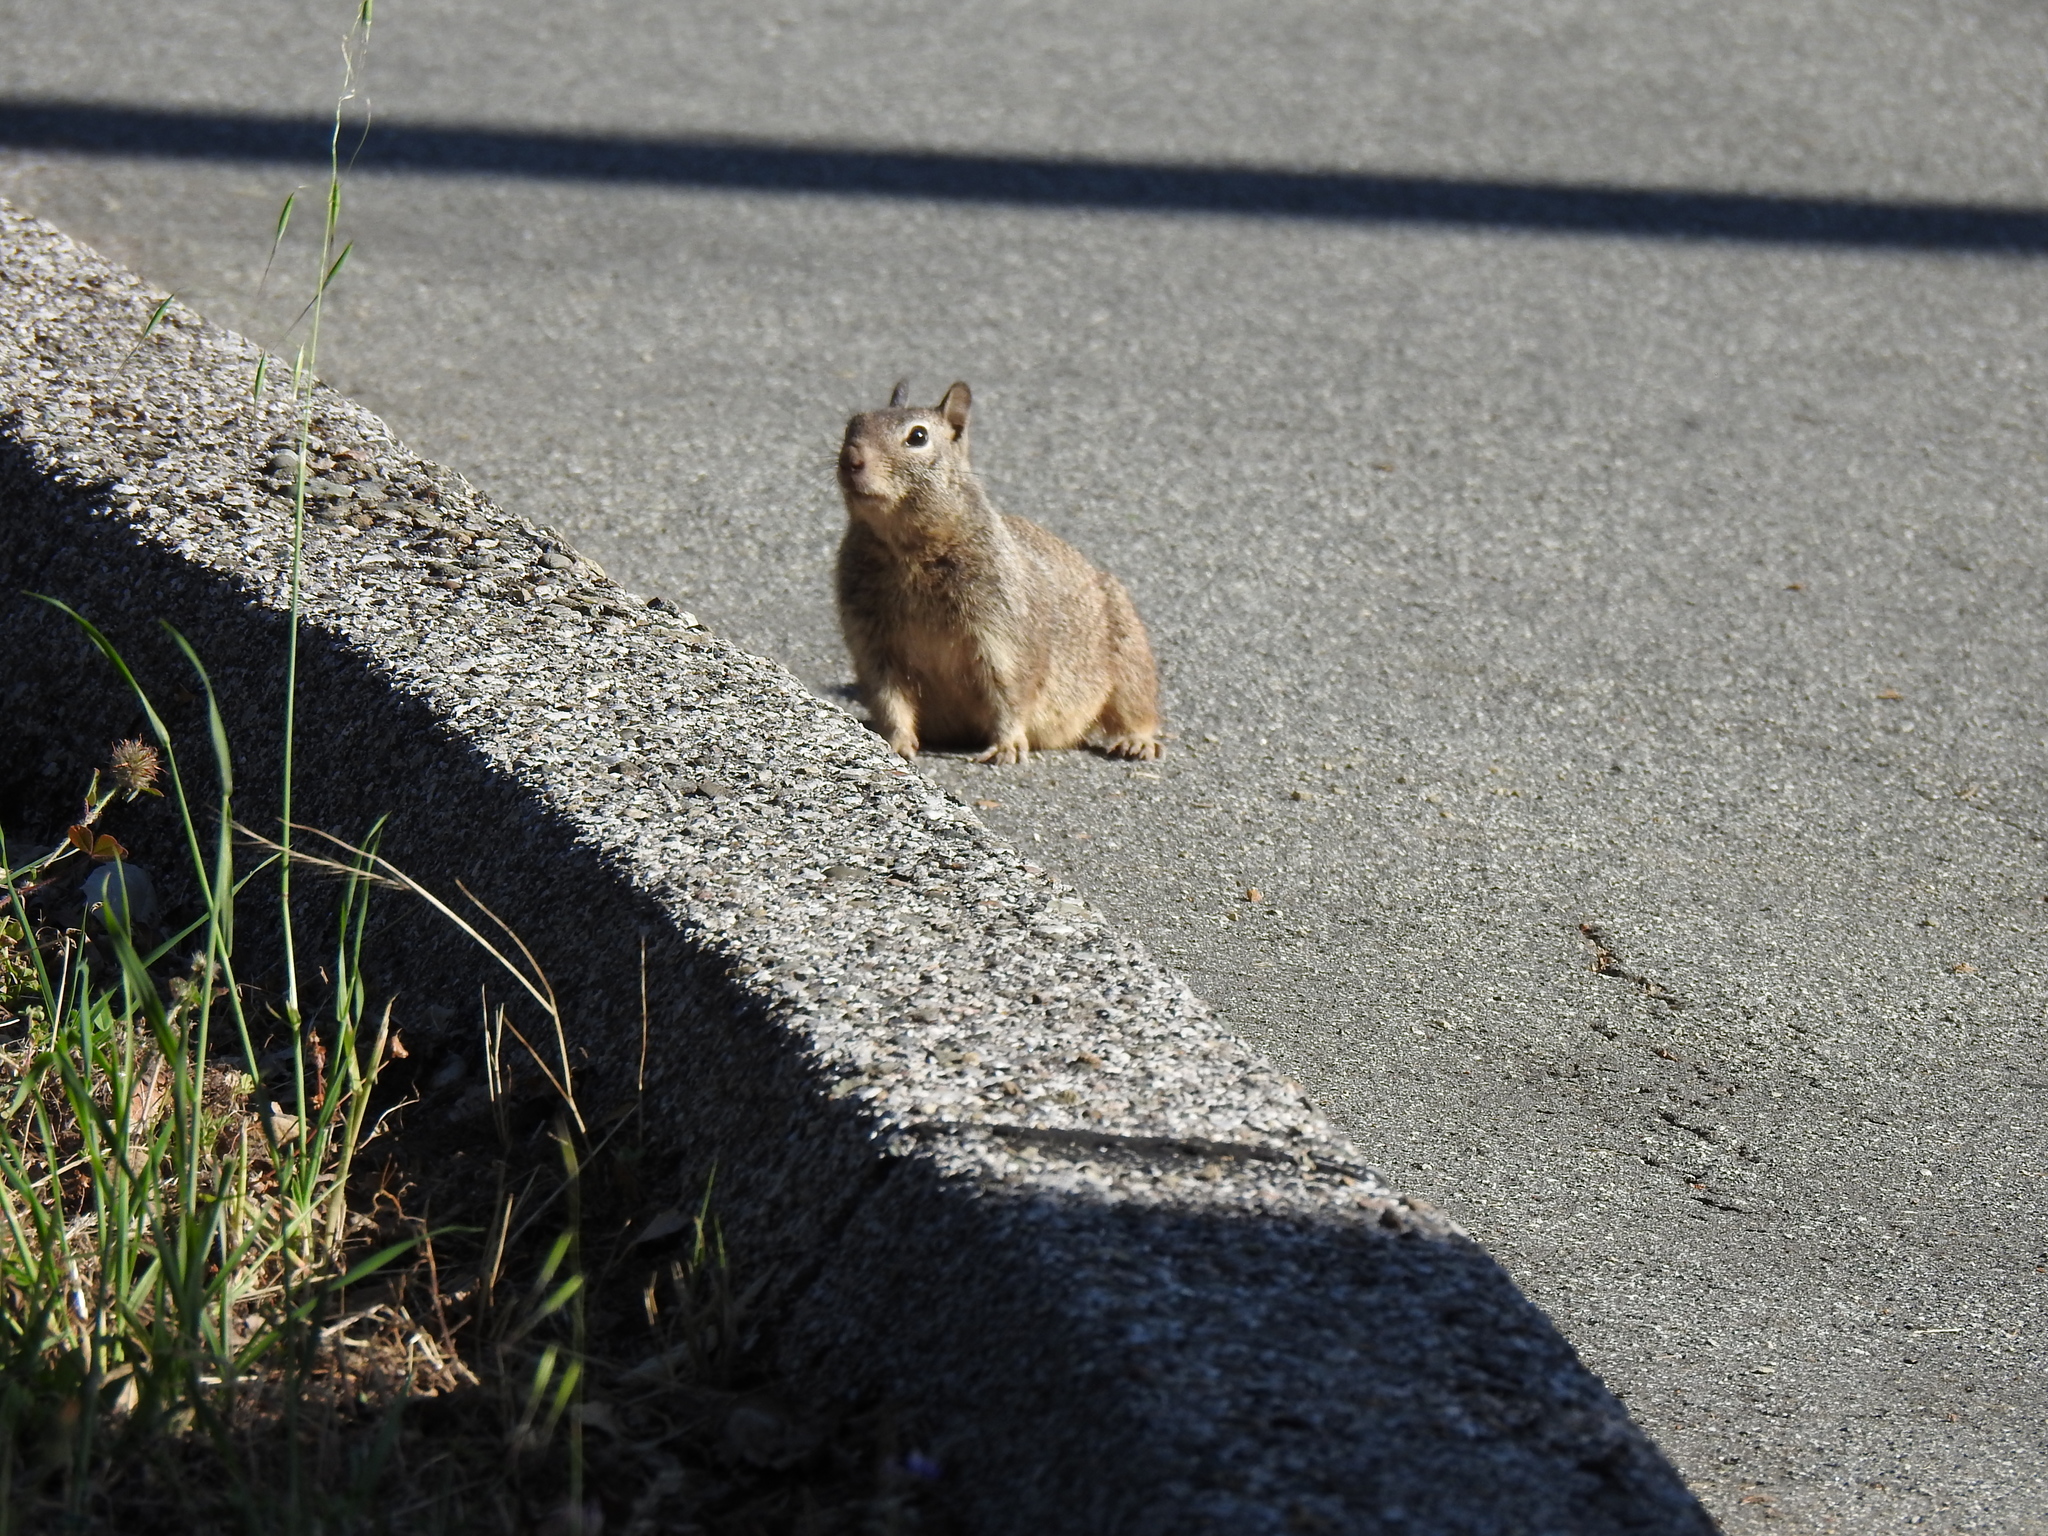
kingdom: Animalia
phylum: Chordata
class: Mammalia
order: Rodentia
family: Sciuridae
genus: Otospermophilus
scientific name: Otospermophilus beecheyi
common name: California ground squirrel
